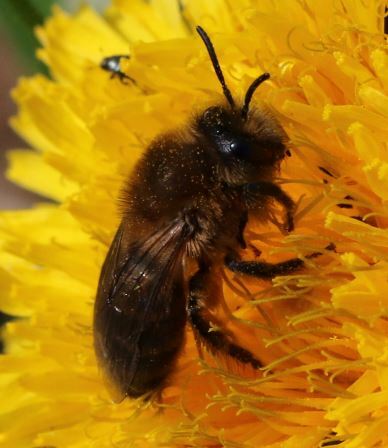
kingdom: Animalia
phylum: Arthropoda
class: Insecta
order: Hymenoptera
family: Colletidae
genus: Colletes
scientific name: Colletes cunicularius
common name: Early colletes
